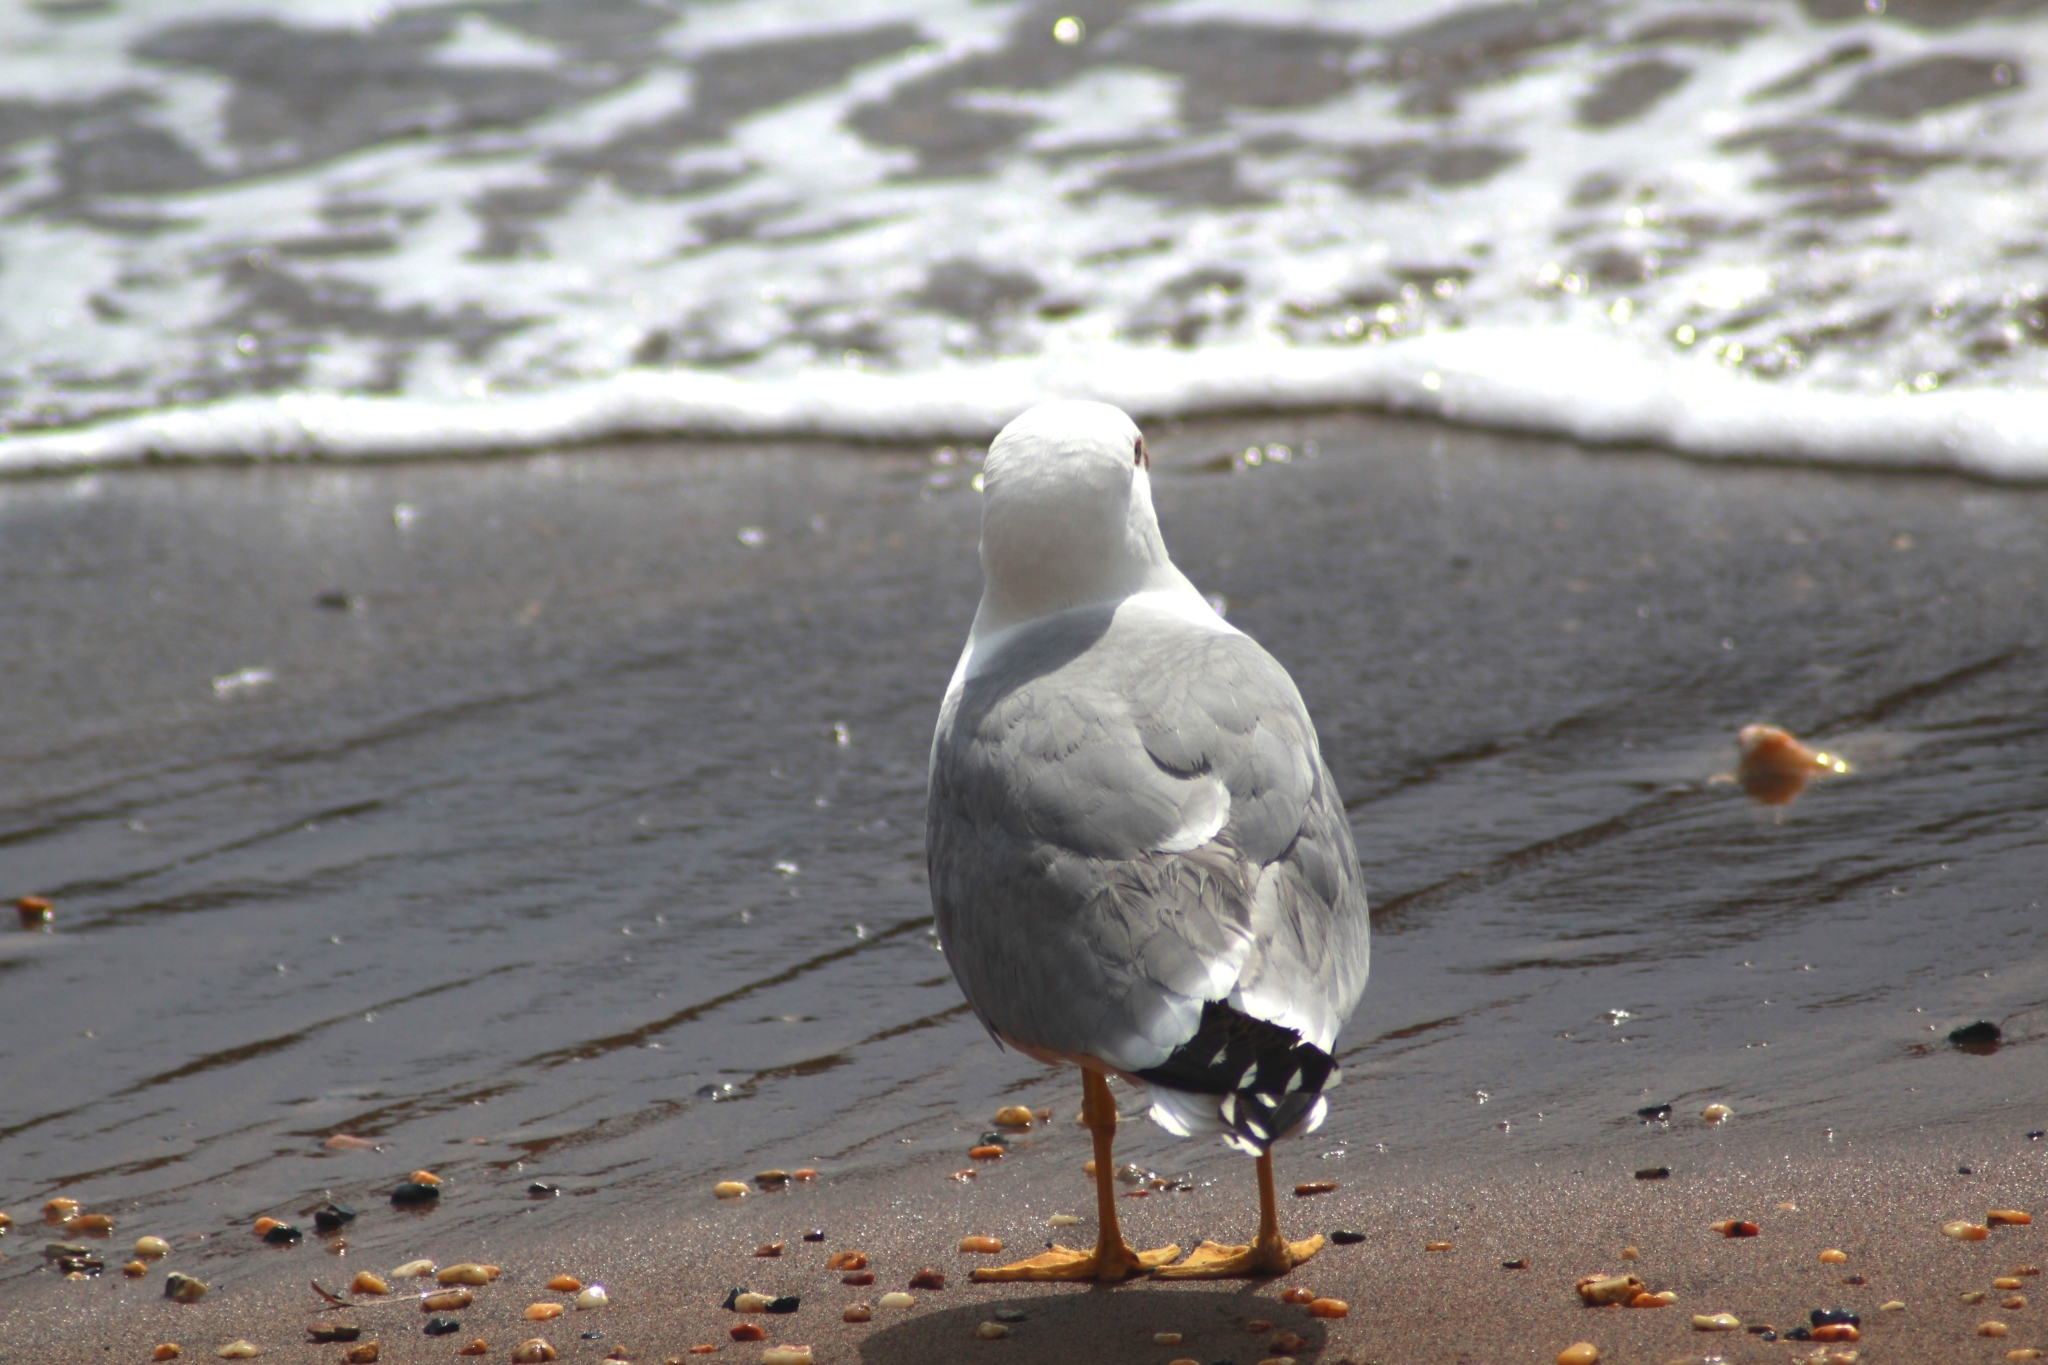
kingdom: Animalia
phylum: Chordata
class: Aves
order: Charadriiformes
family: Laridae
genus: Larus
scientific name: Larus michahellis
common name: Yellow-legged gull
